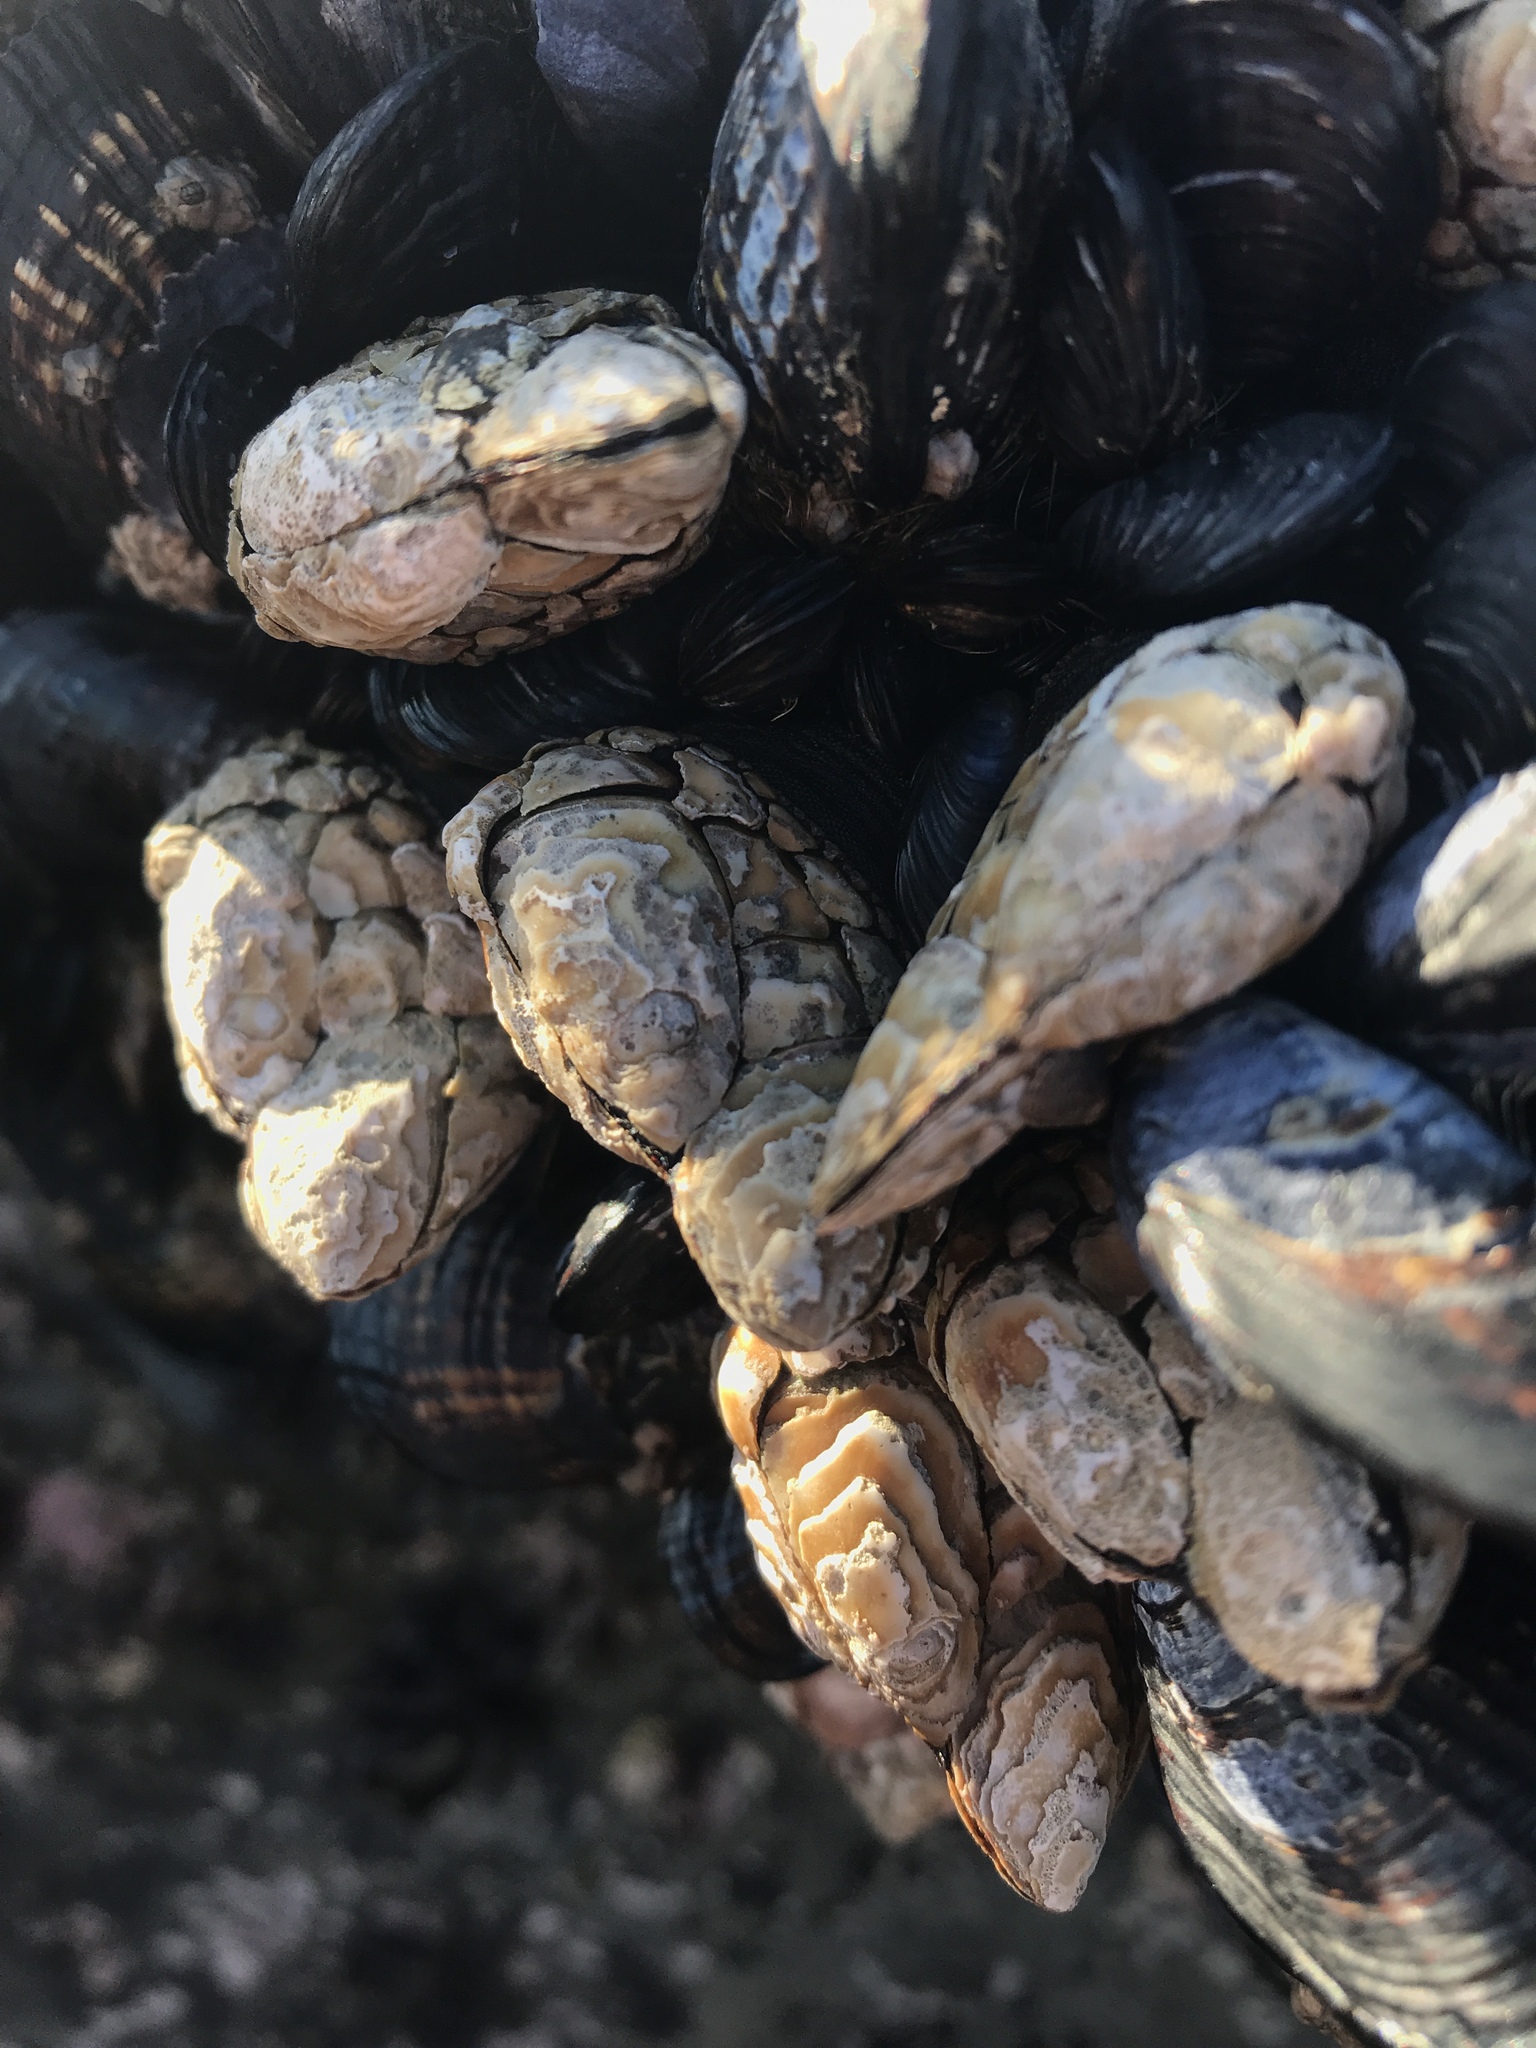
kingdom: Animalia
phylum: Arthropoda
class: Maxillopoda
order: Pedunculata
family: Pollicipedidae
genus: Pollicipes
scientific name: Pollicipes polymerus
